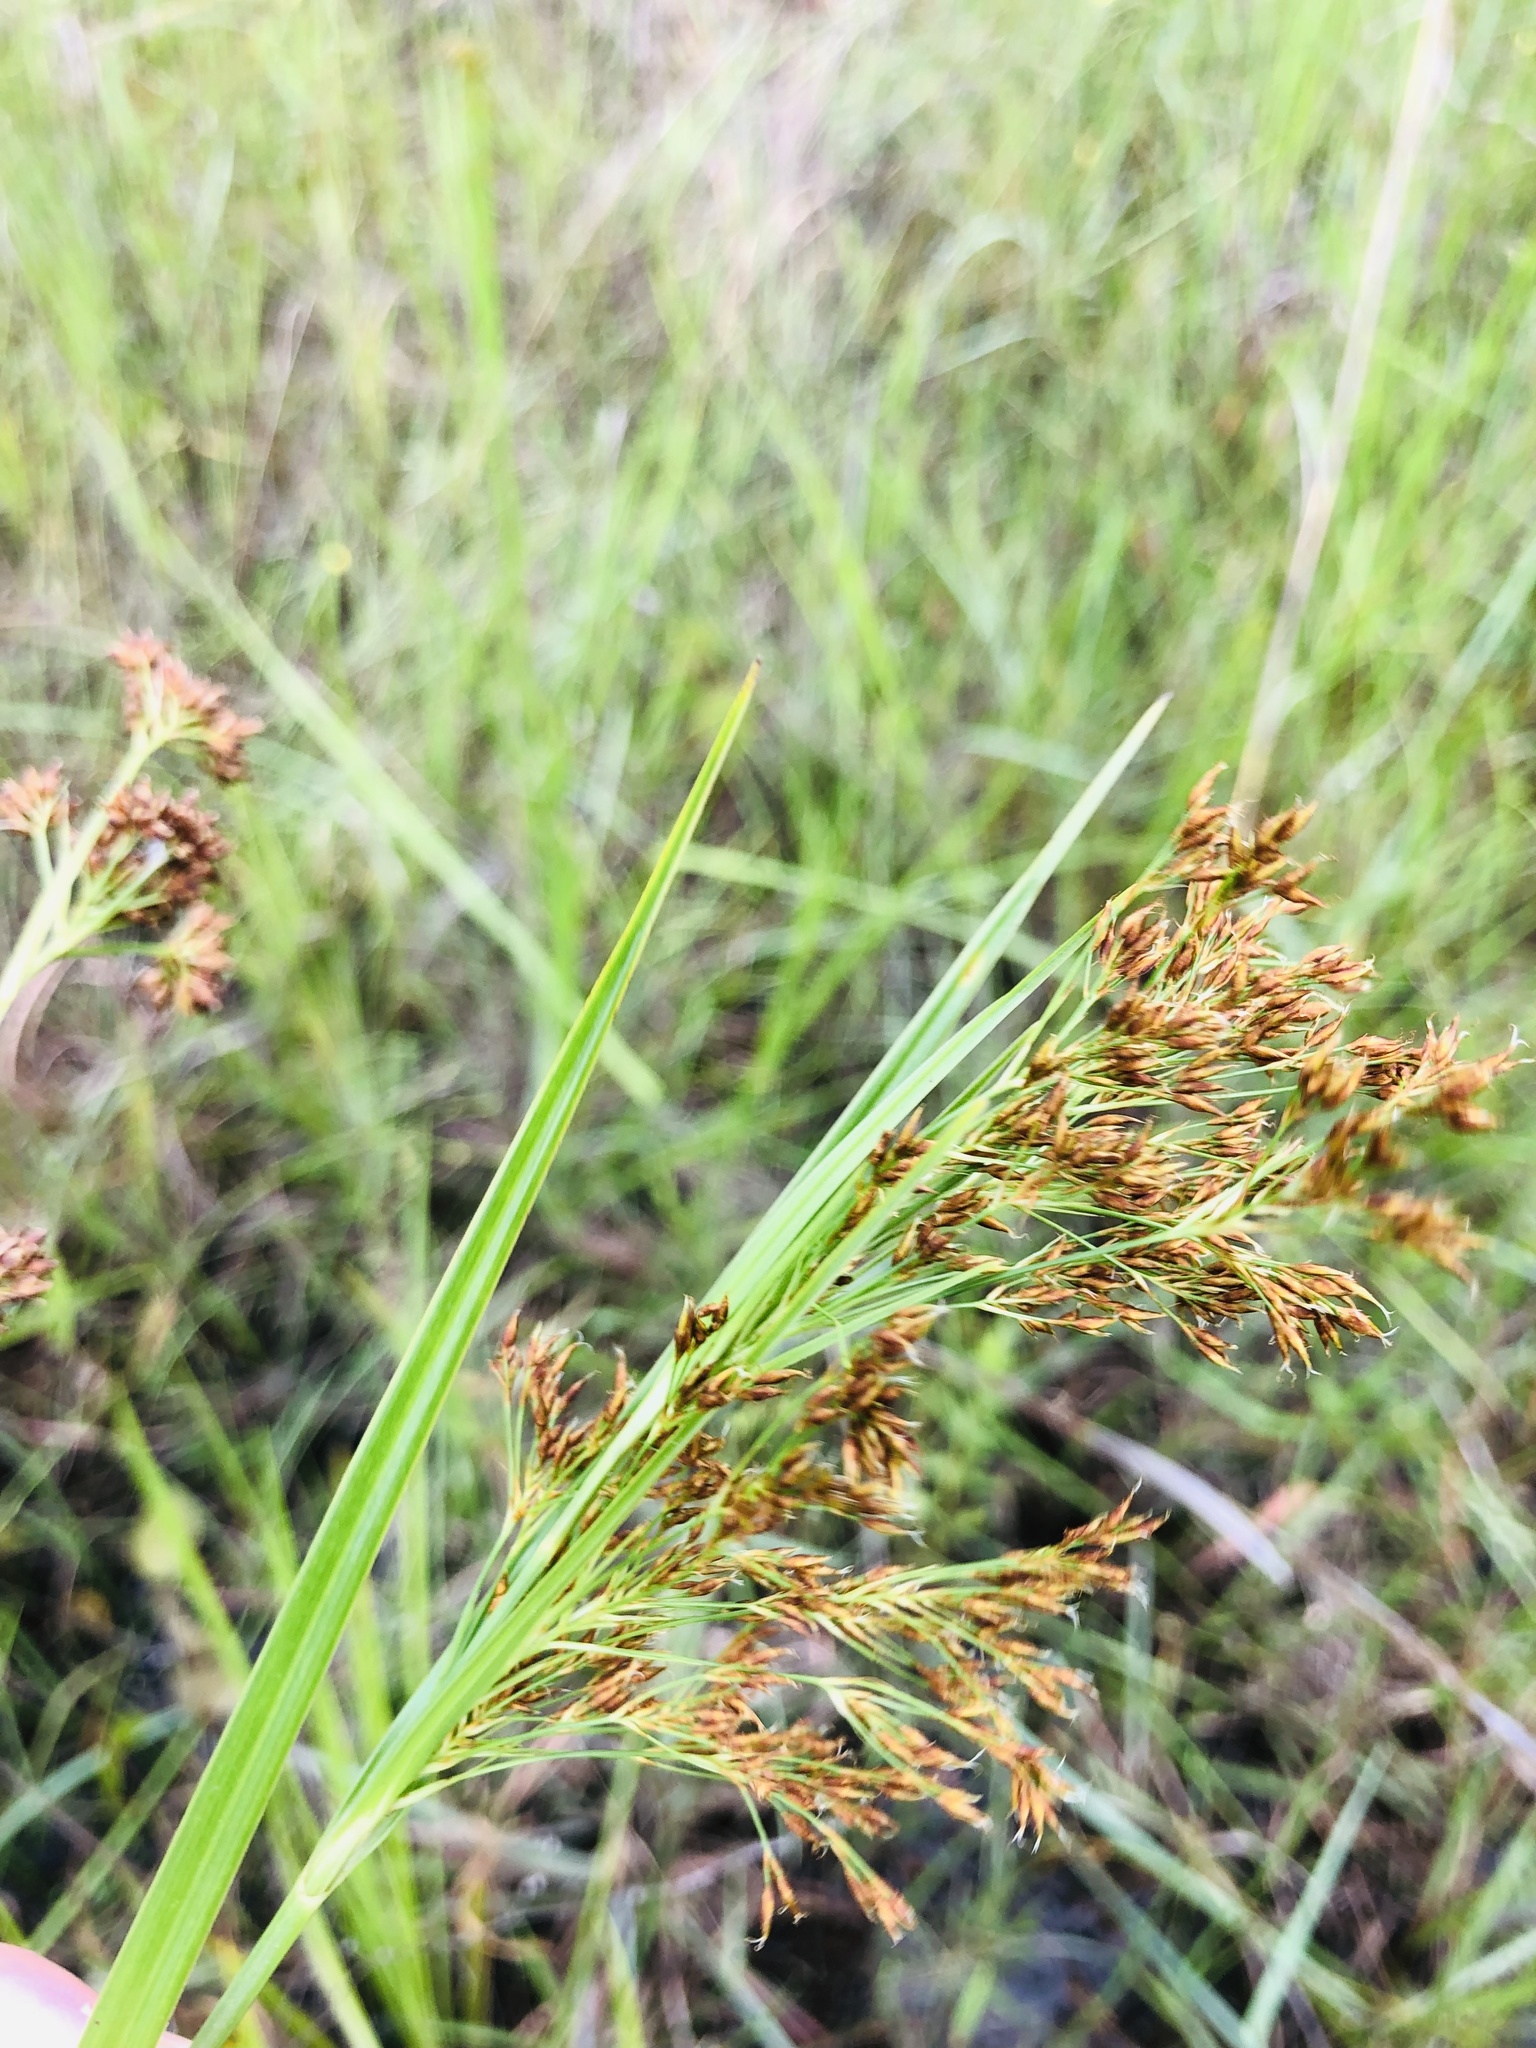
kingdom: Plantae
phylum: Tracheophyta
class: Liliopsida
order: Poales
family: Cyperaceae
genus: Rhynchospora
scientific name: Rhynchospora inexpansa
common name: Nodding beaksedge
